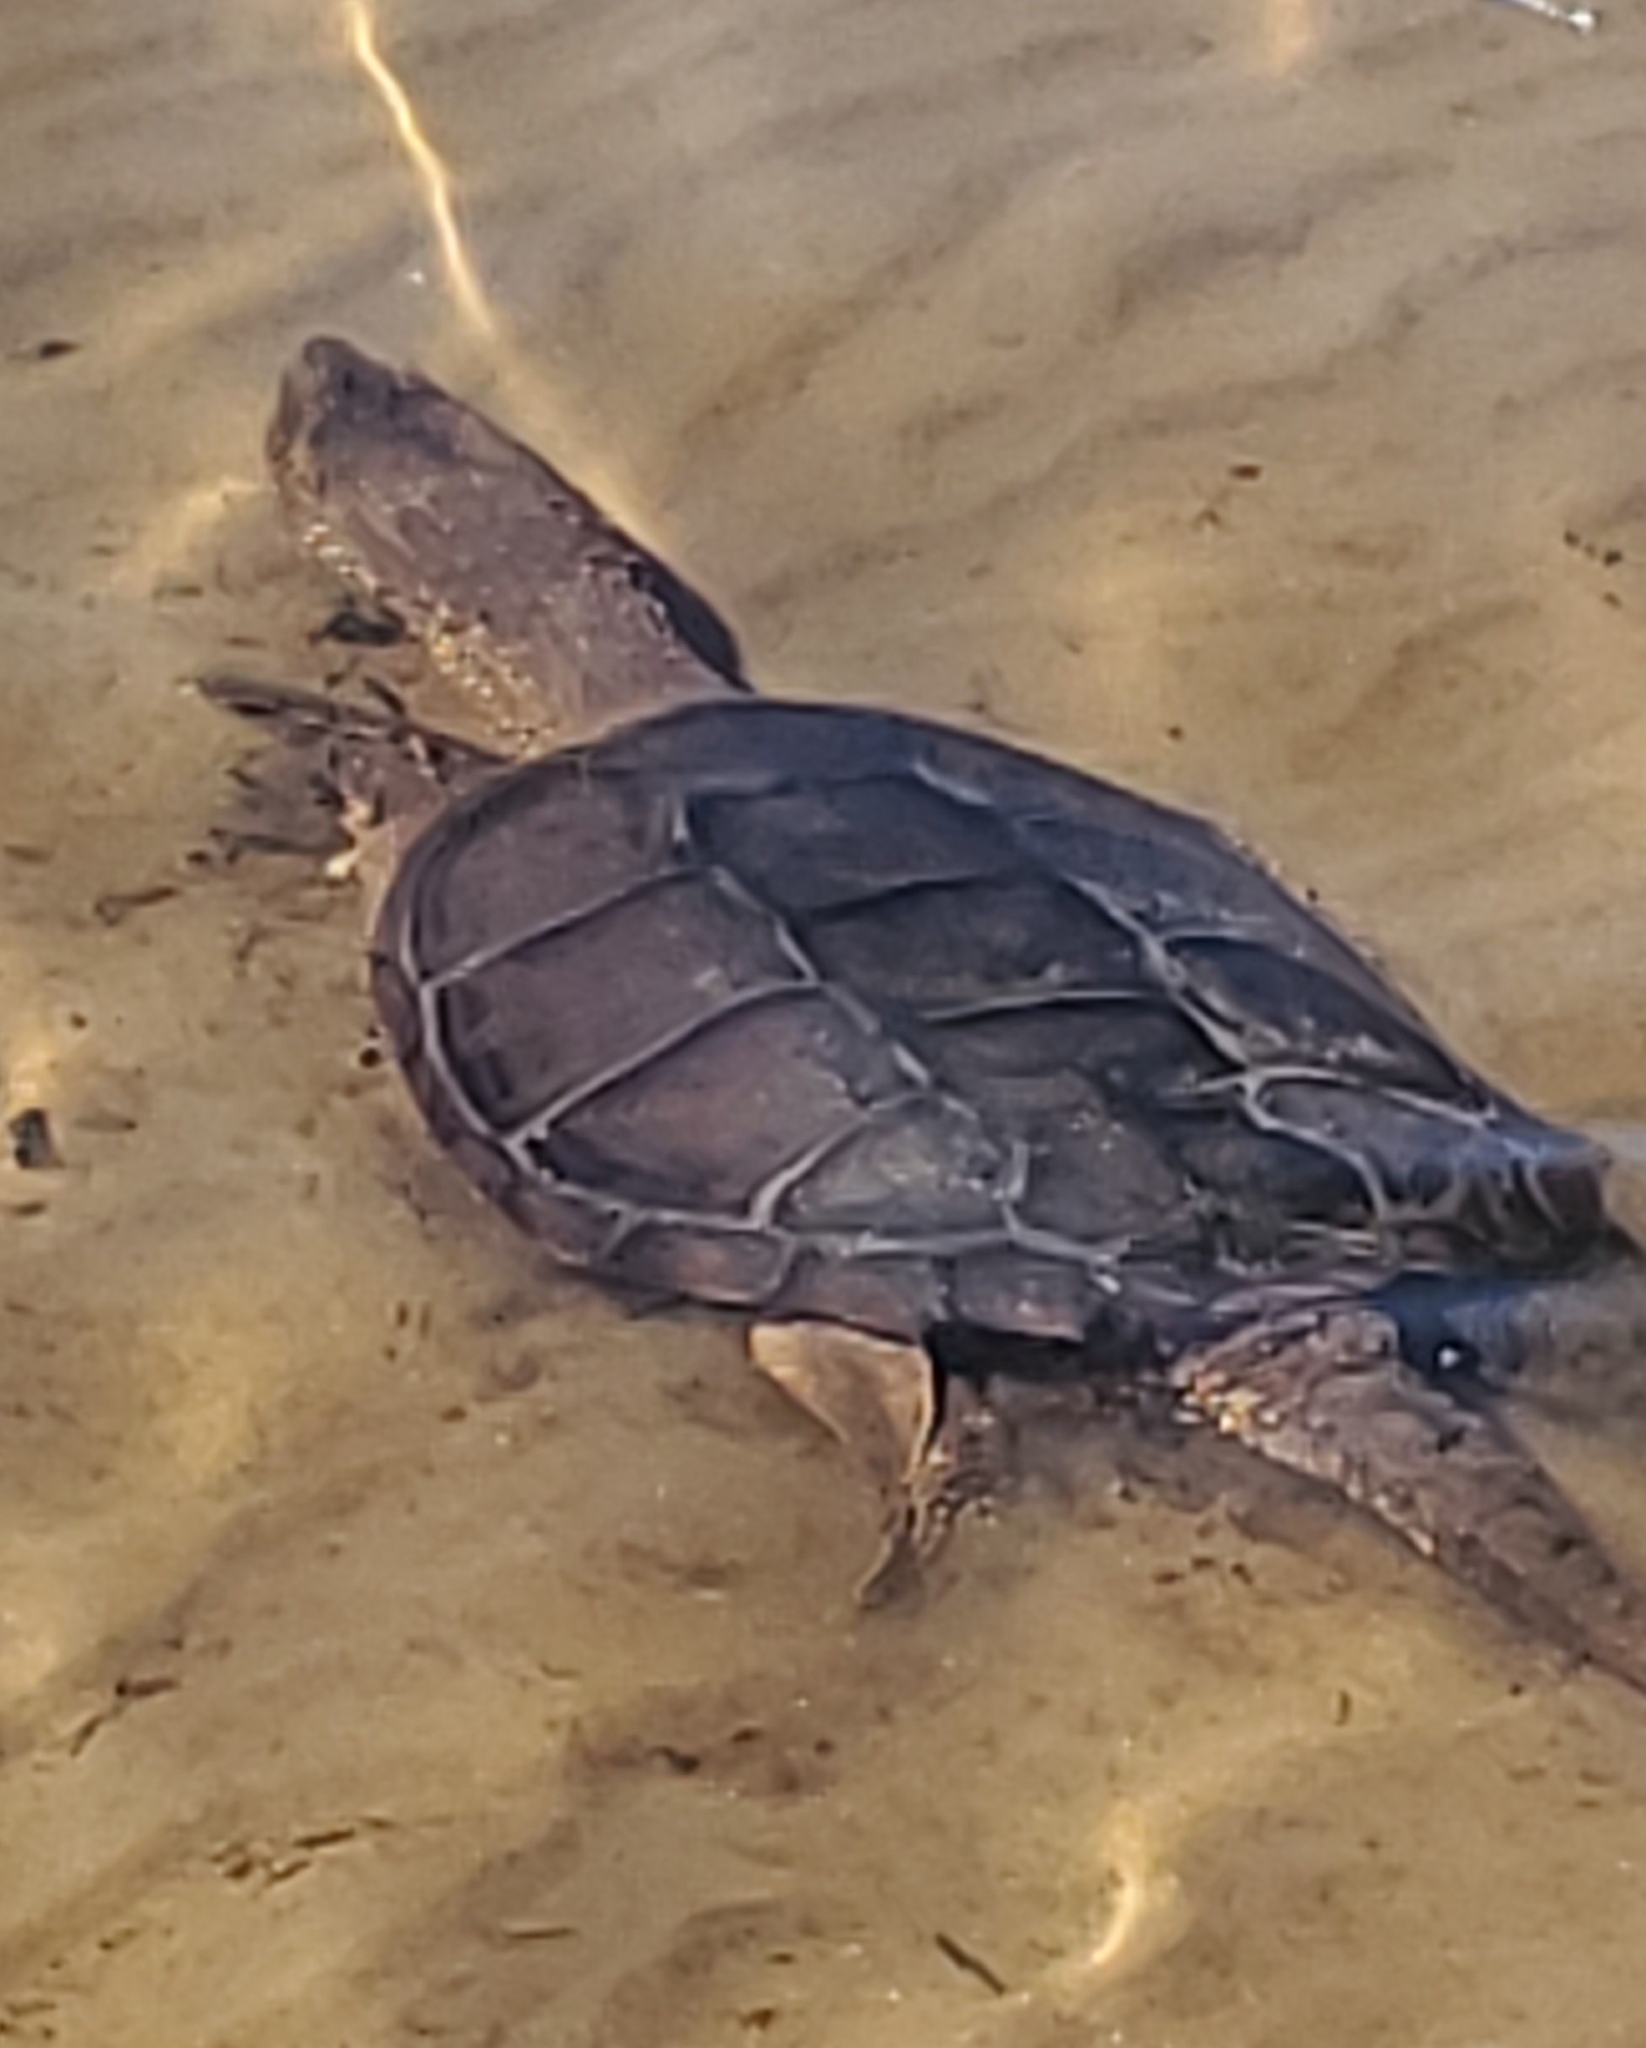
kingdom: Animalia
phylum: Chordata
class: Testudines
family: Chelydridae
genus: Chelydra
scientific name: Chelydra serpentina
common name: Common snapping turtle
